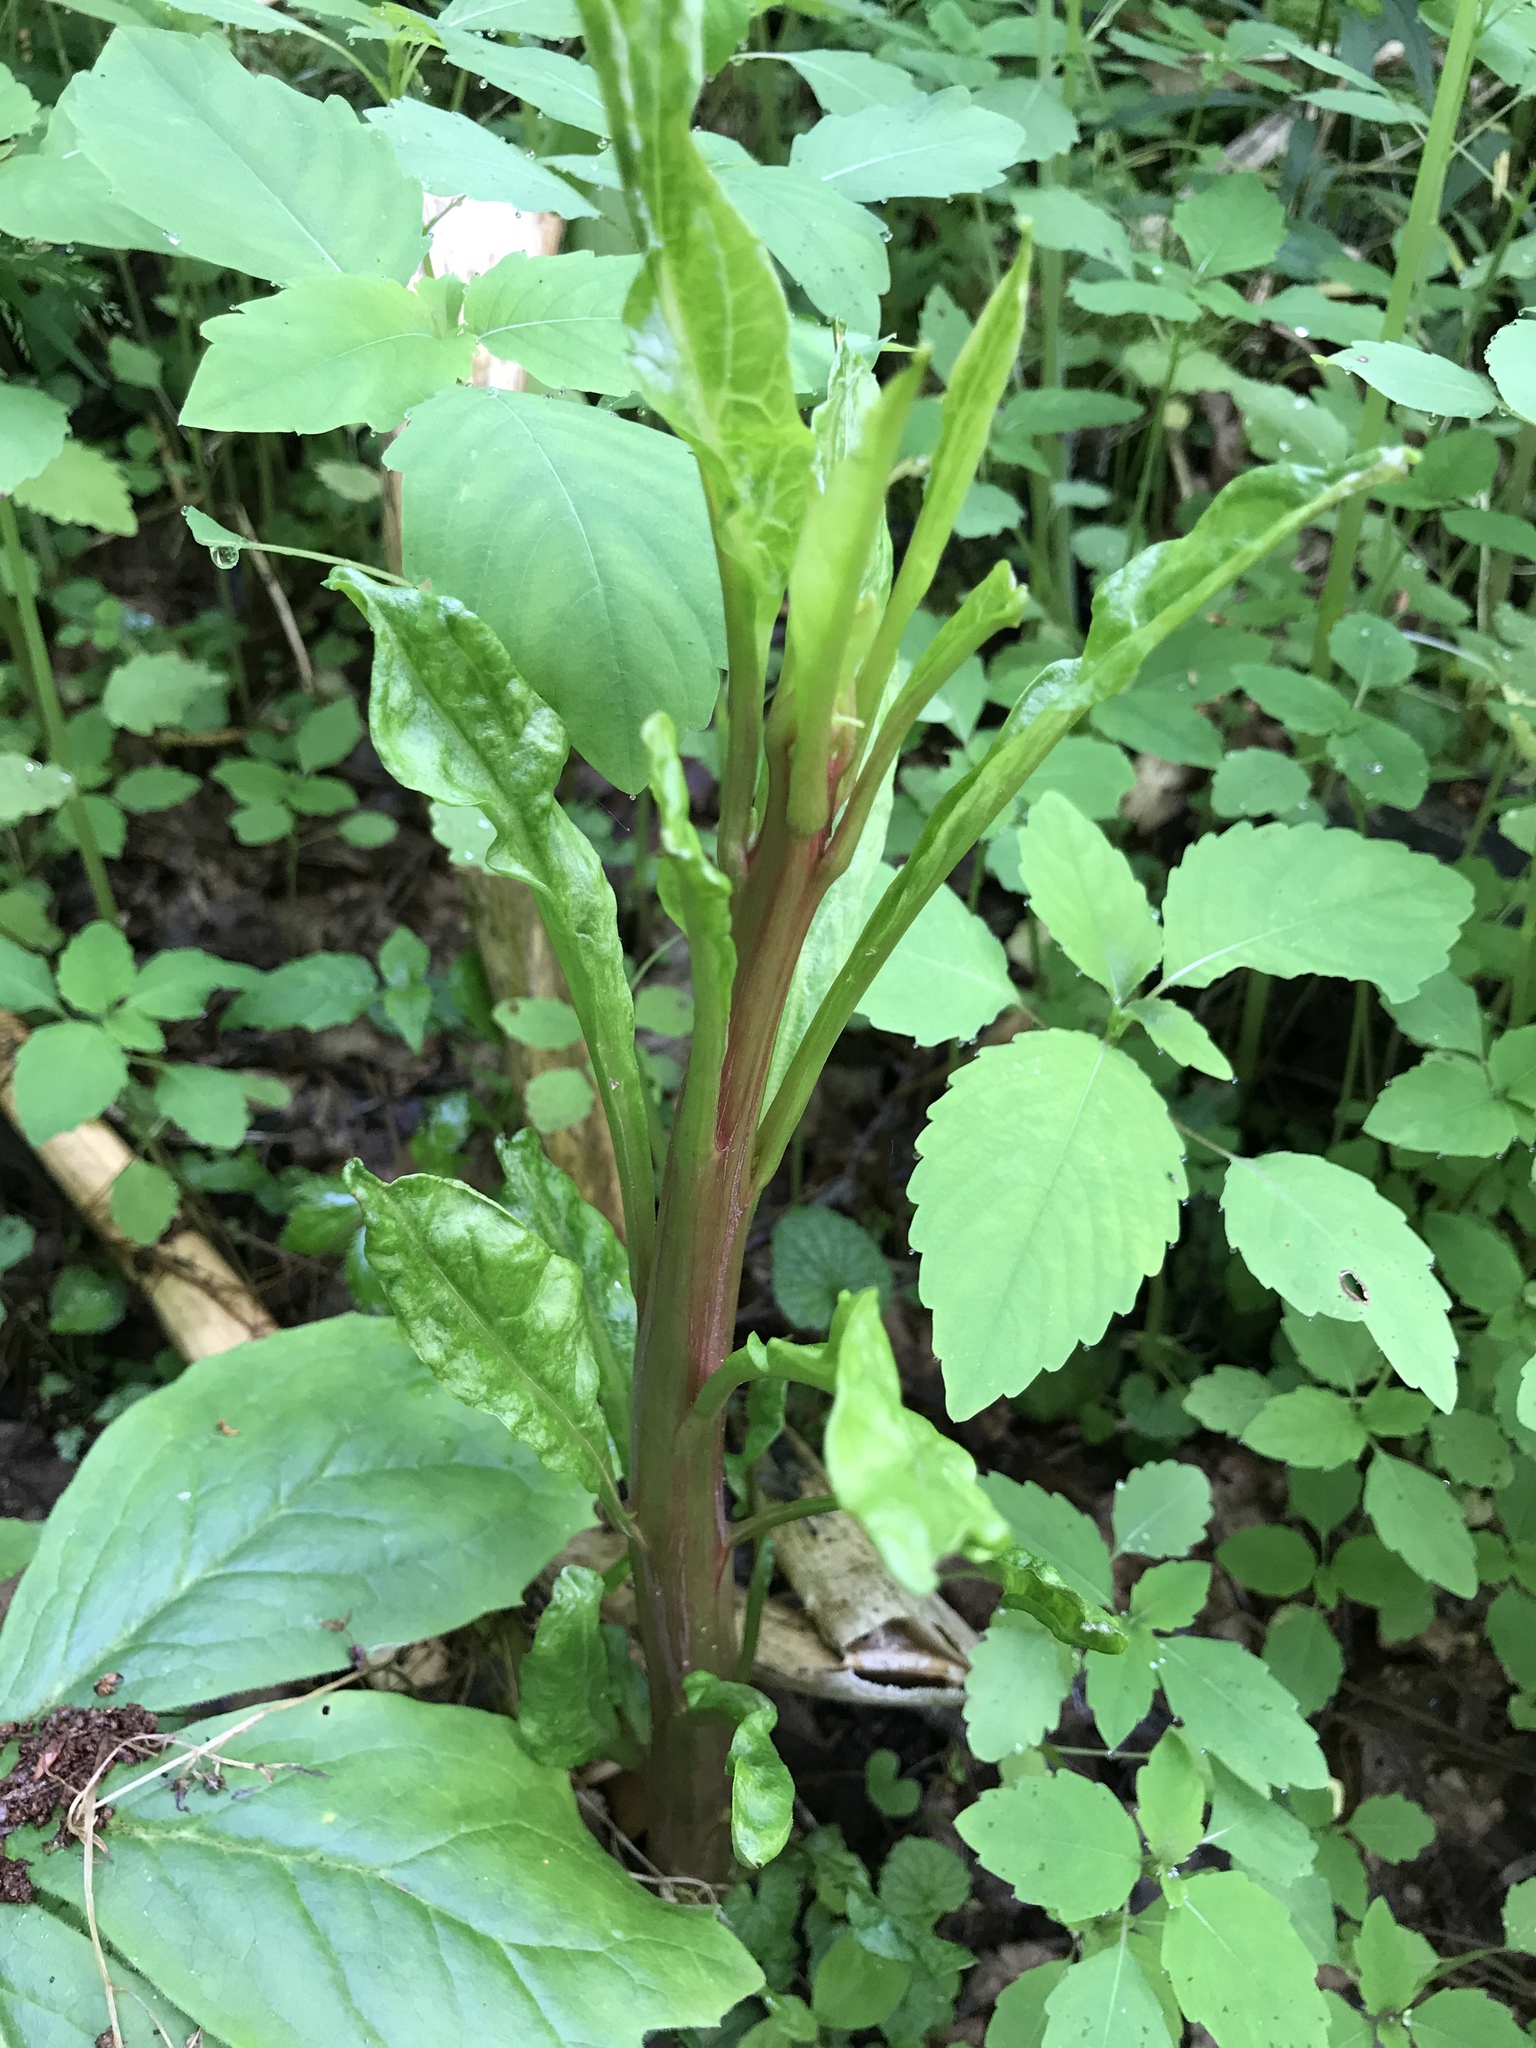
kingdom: Plantae
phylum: Tracheophyta
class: Magnoliopsida
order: Caryophyllales
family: Phytolaccaceae
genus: Phytolacca
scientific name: Phytolacca americana
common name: American pokeweed
